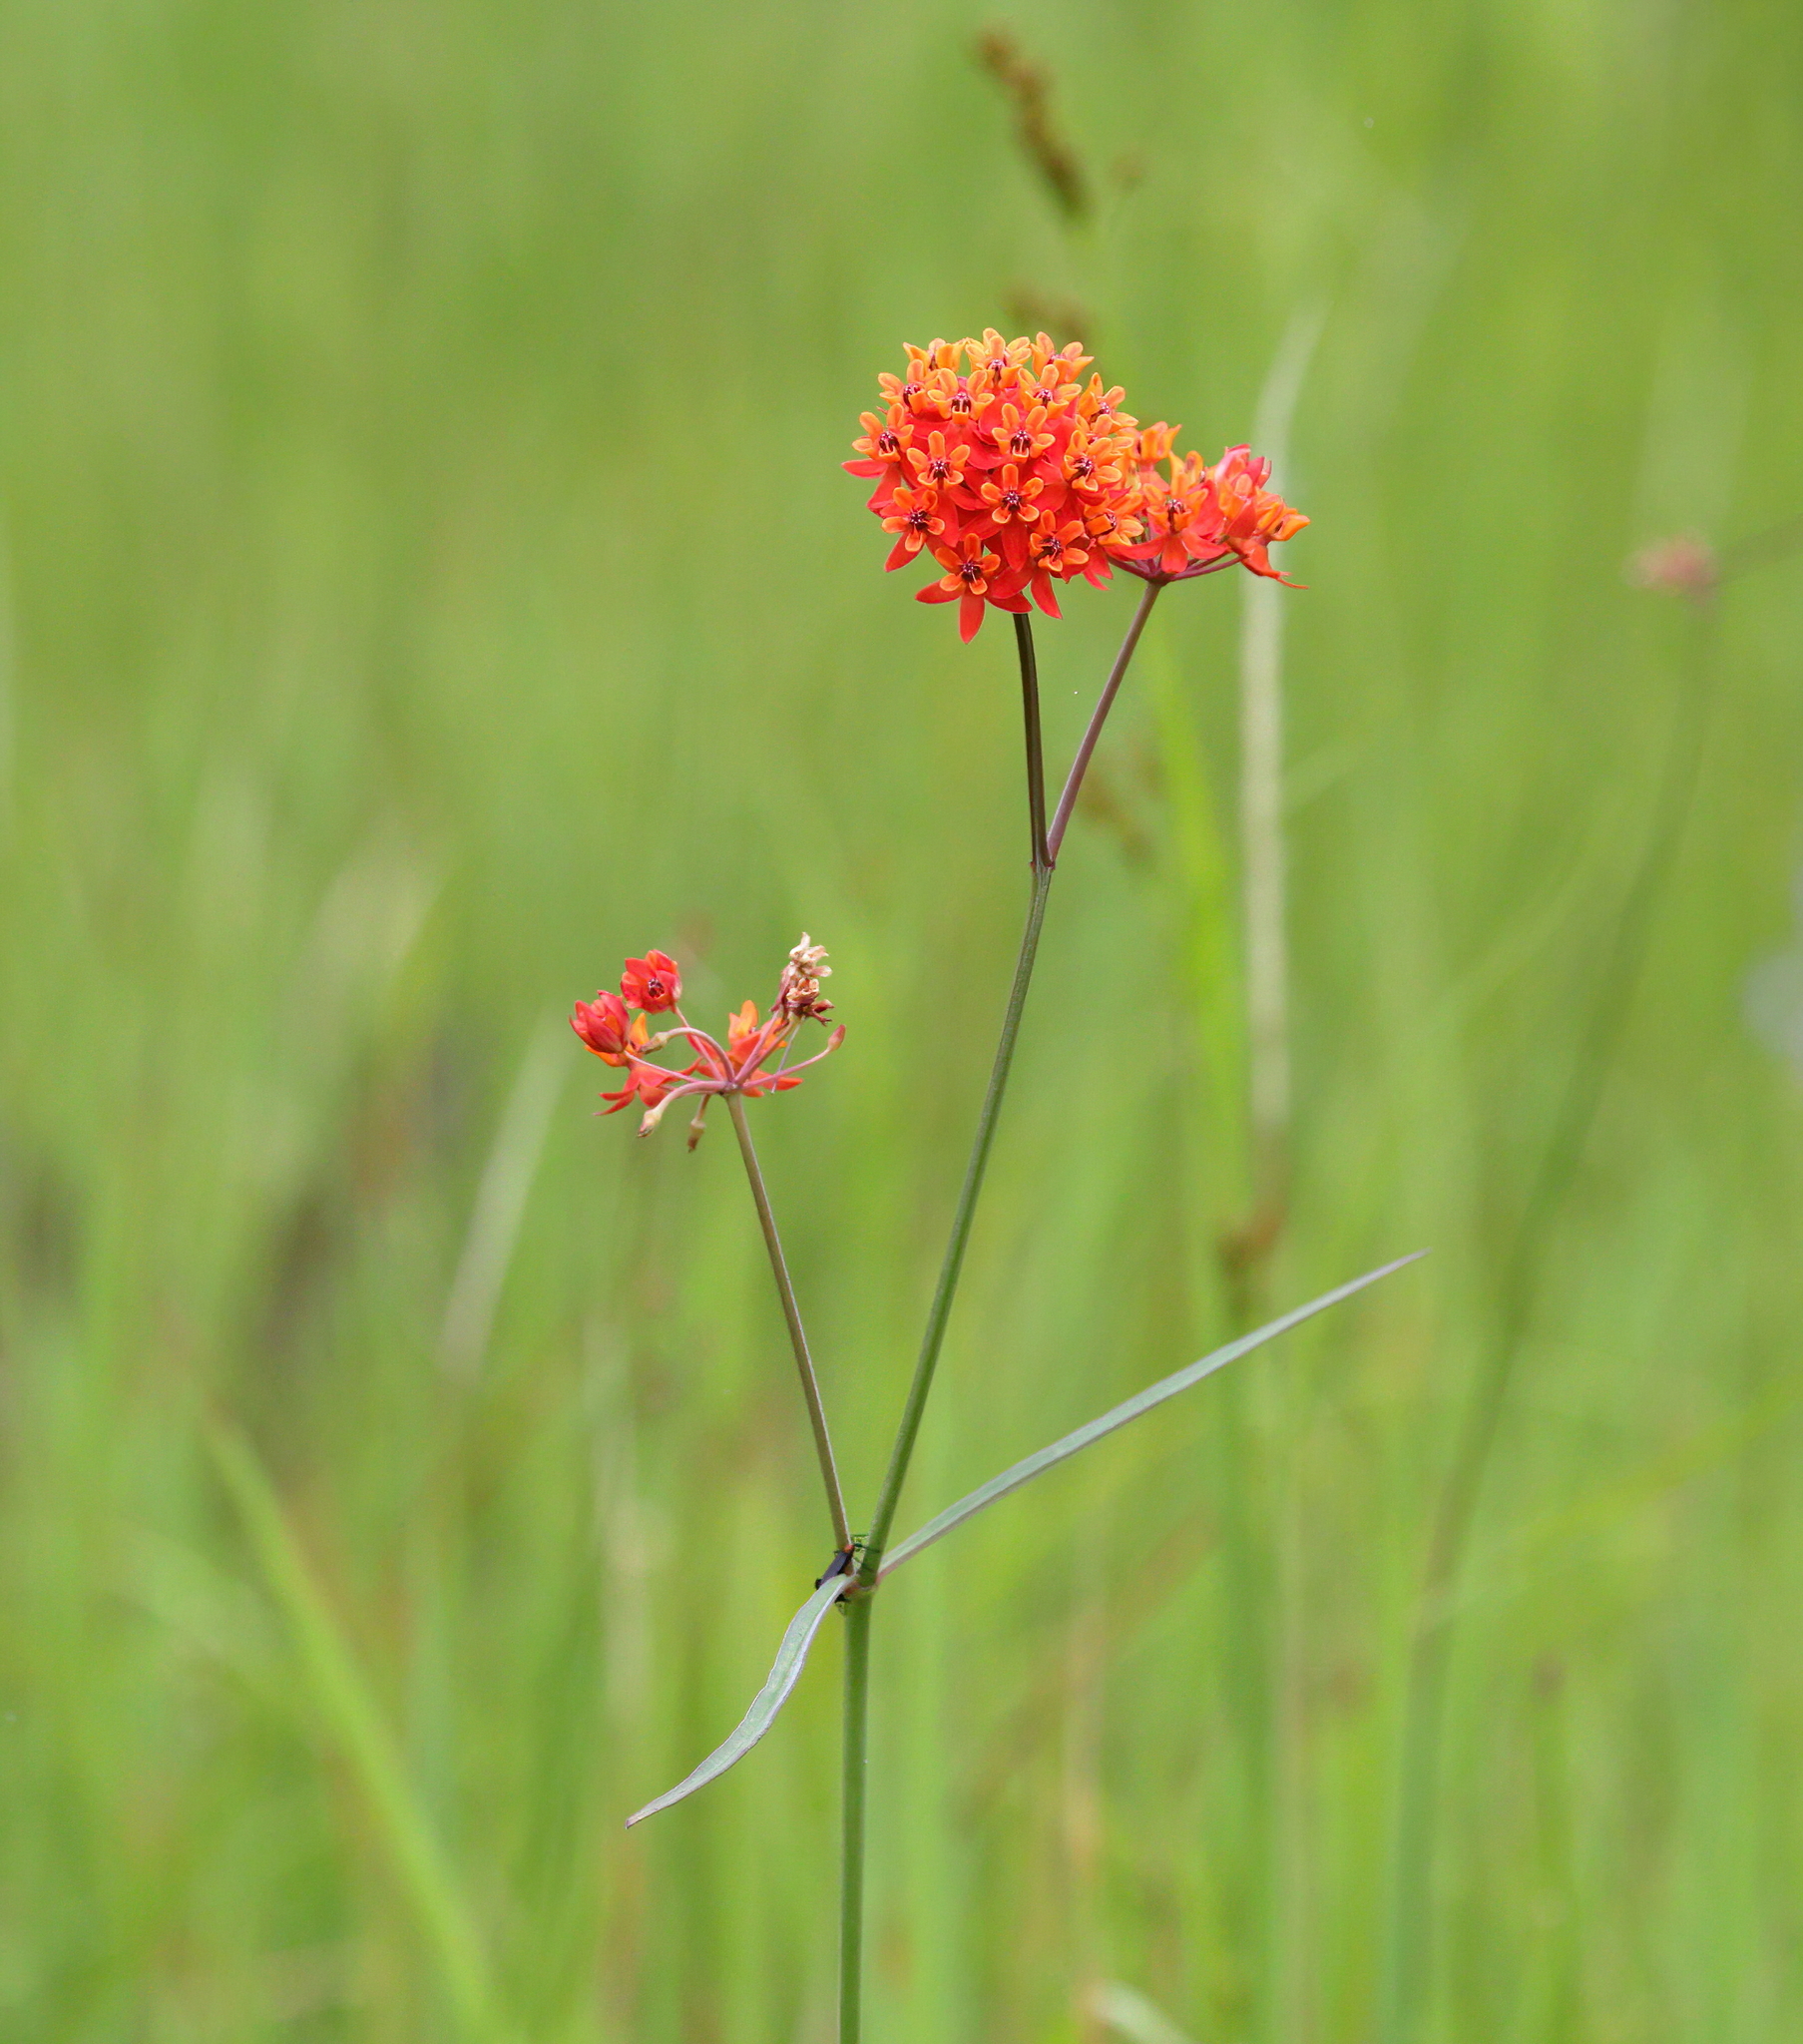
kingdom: Plantae
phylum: Tracheophyta
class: Magnoliopsida
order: Gentianales
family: Apocynaceae
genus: Asclepias
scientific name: Asclepias lanceolata
